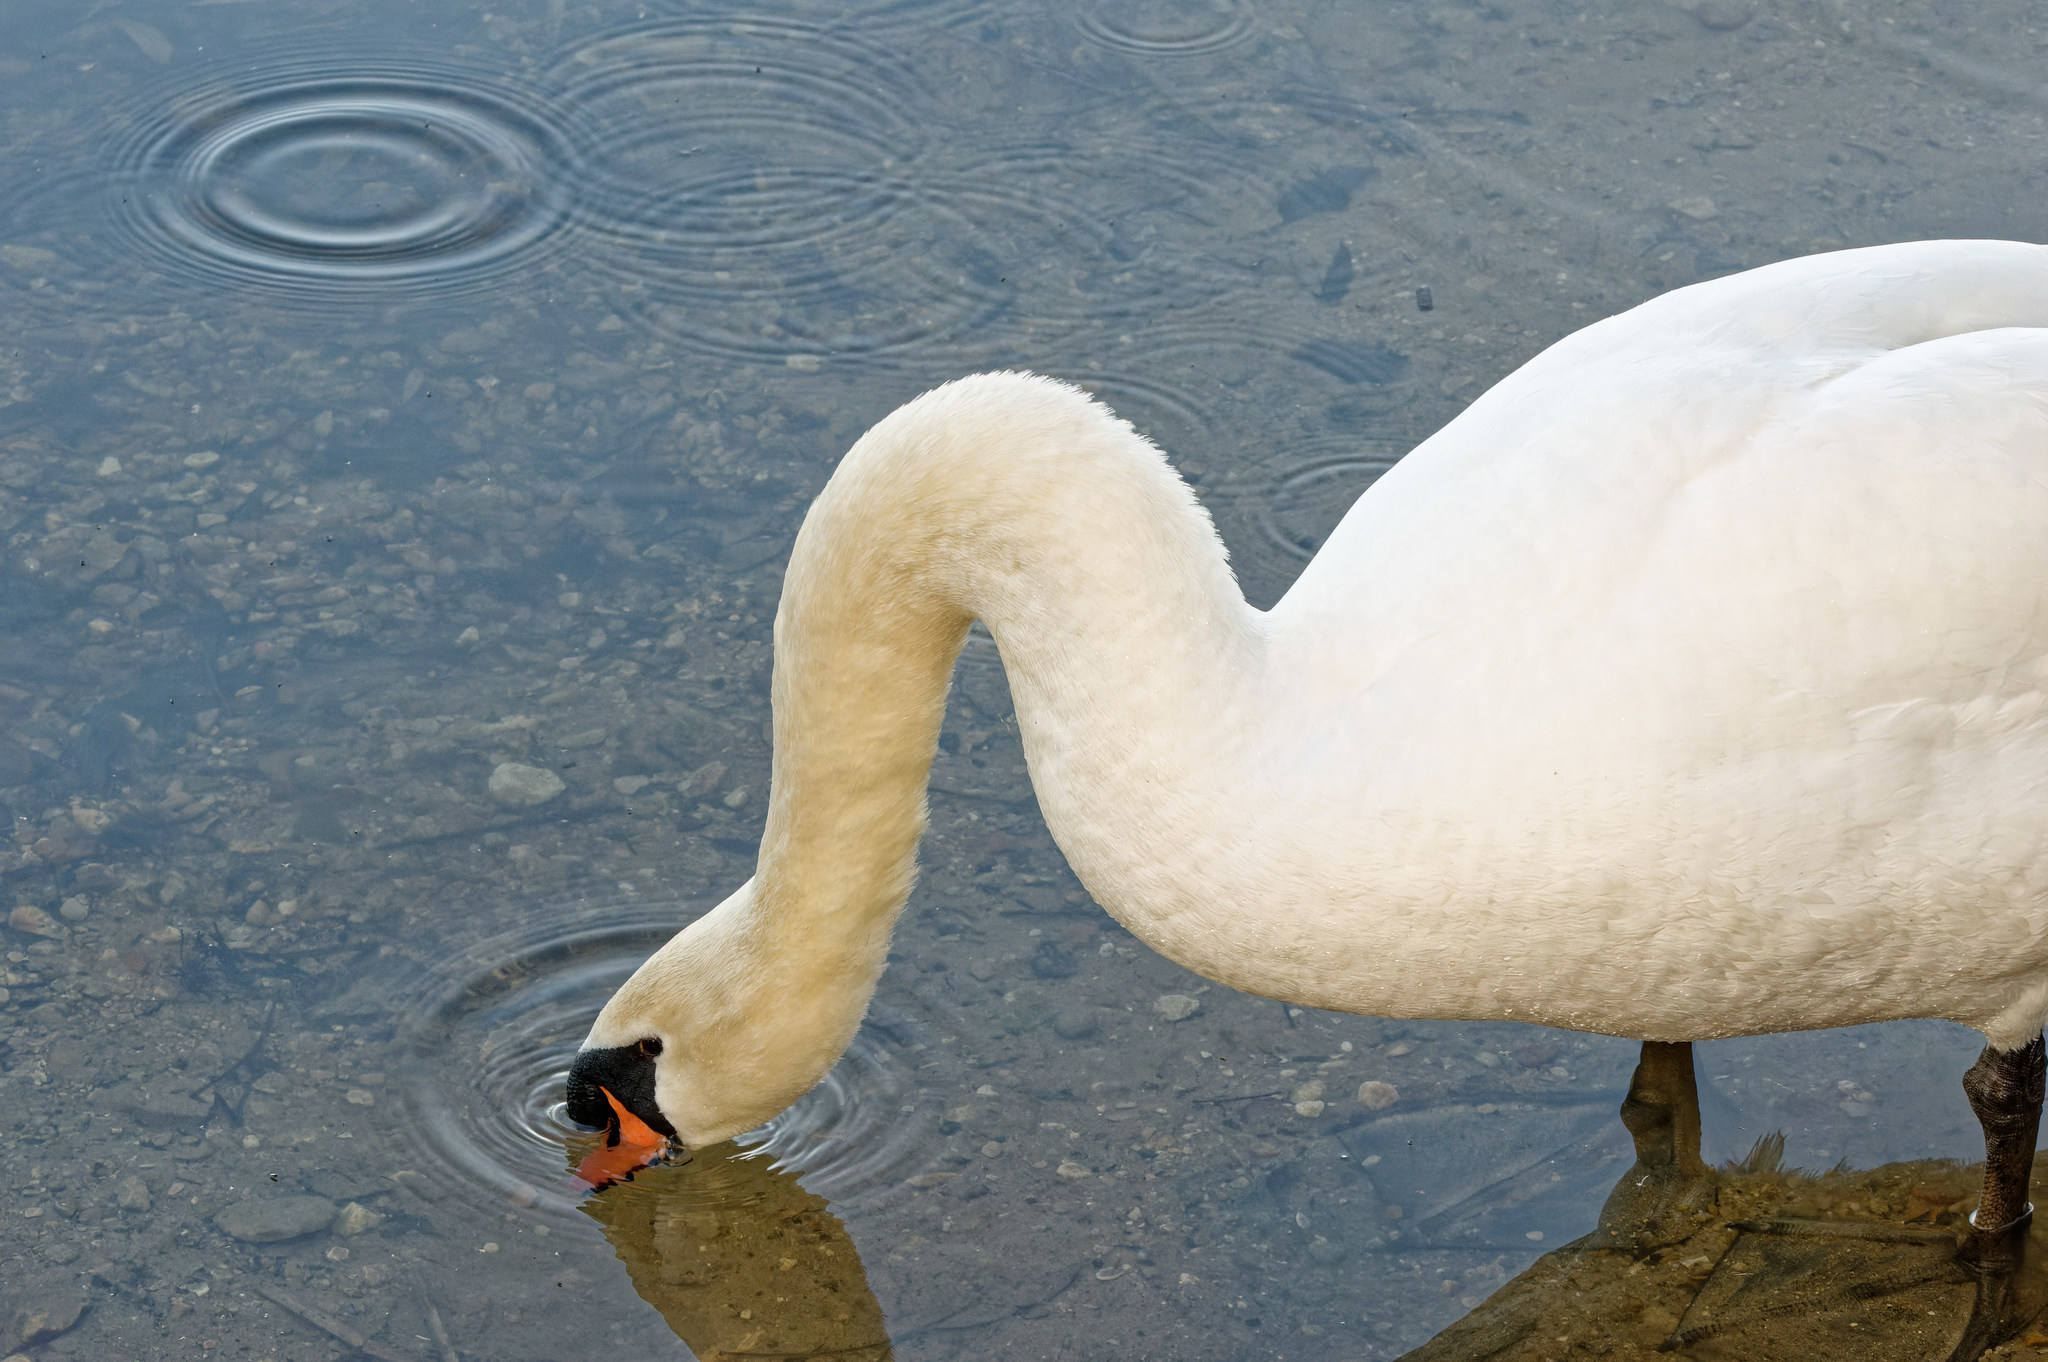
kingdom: Animalia
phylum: Chordata
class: Aves
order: Anseriformes
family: Anatidae
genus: Cygnus
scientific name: Cygnus olor
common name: Mute swan
